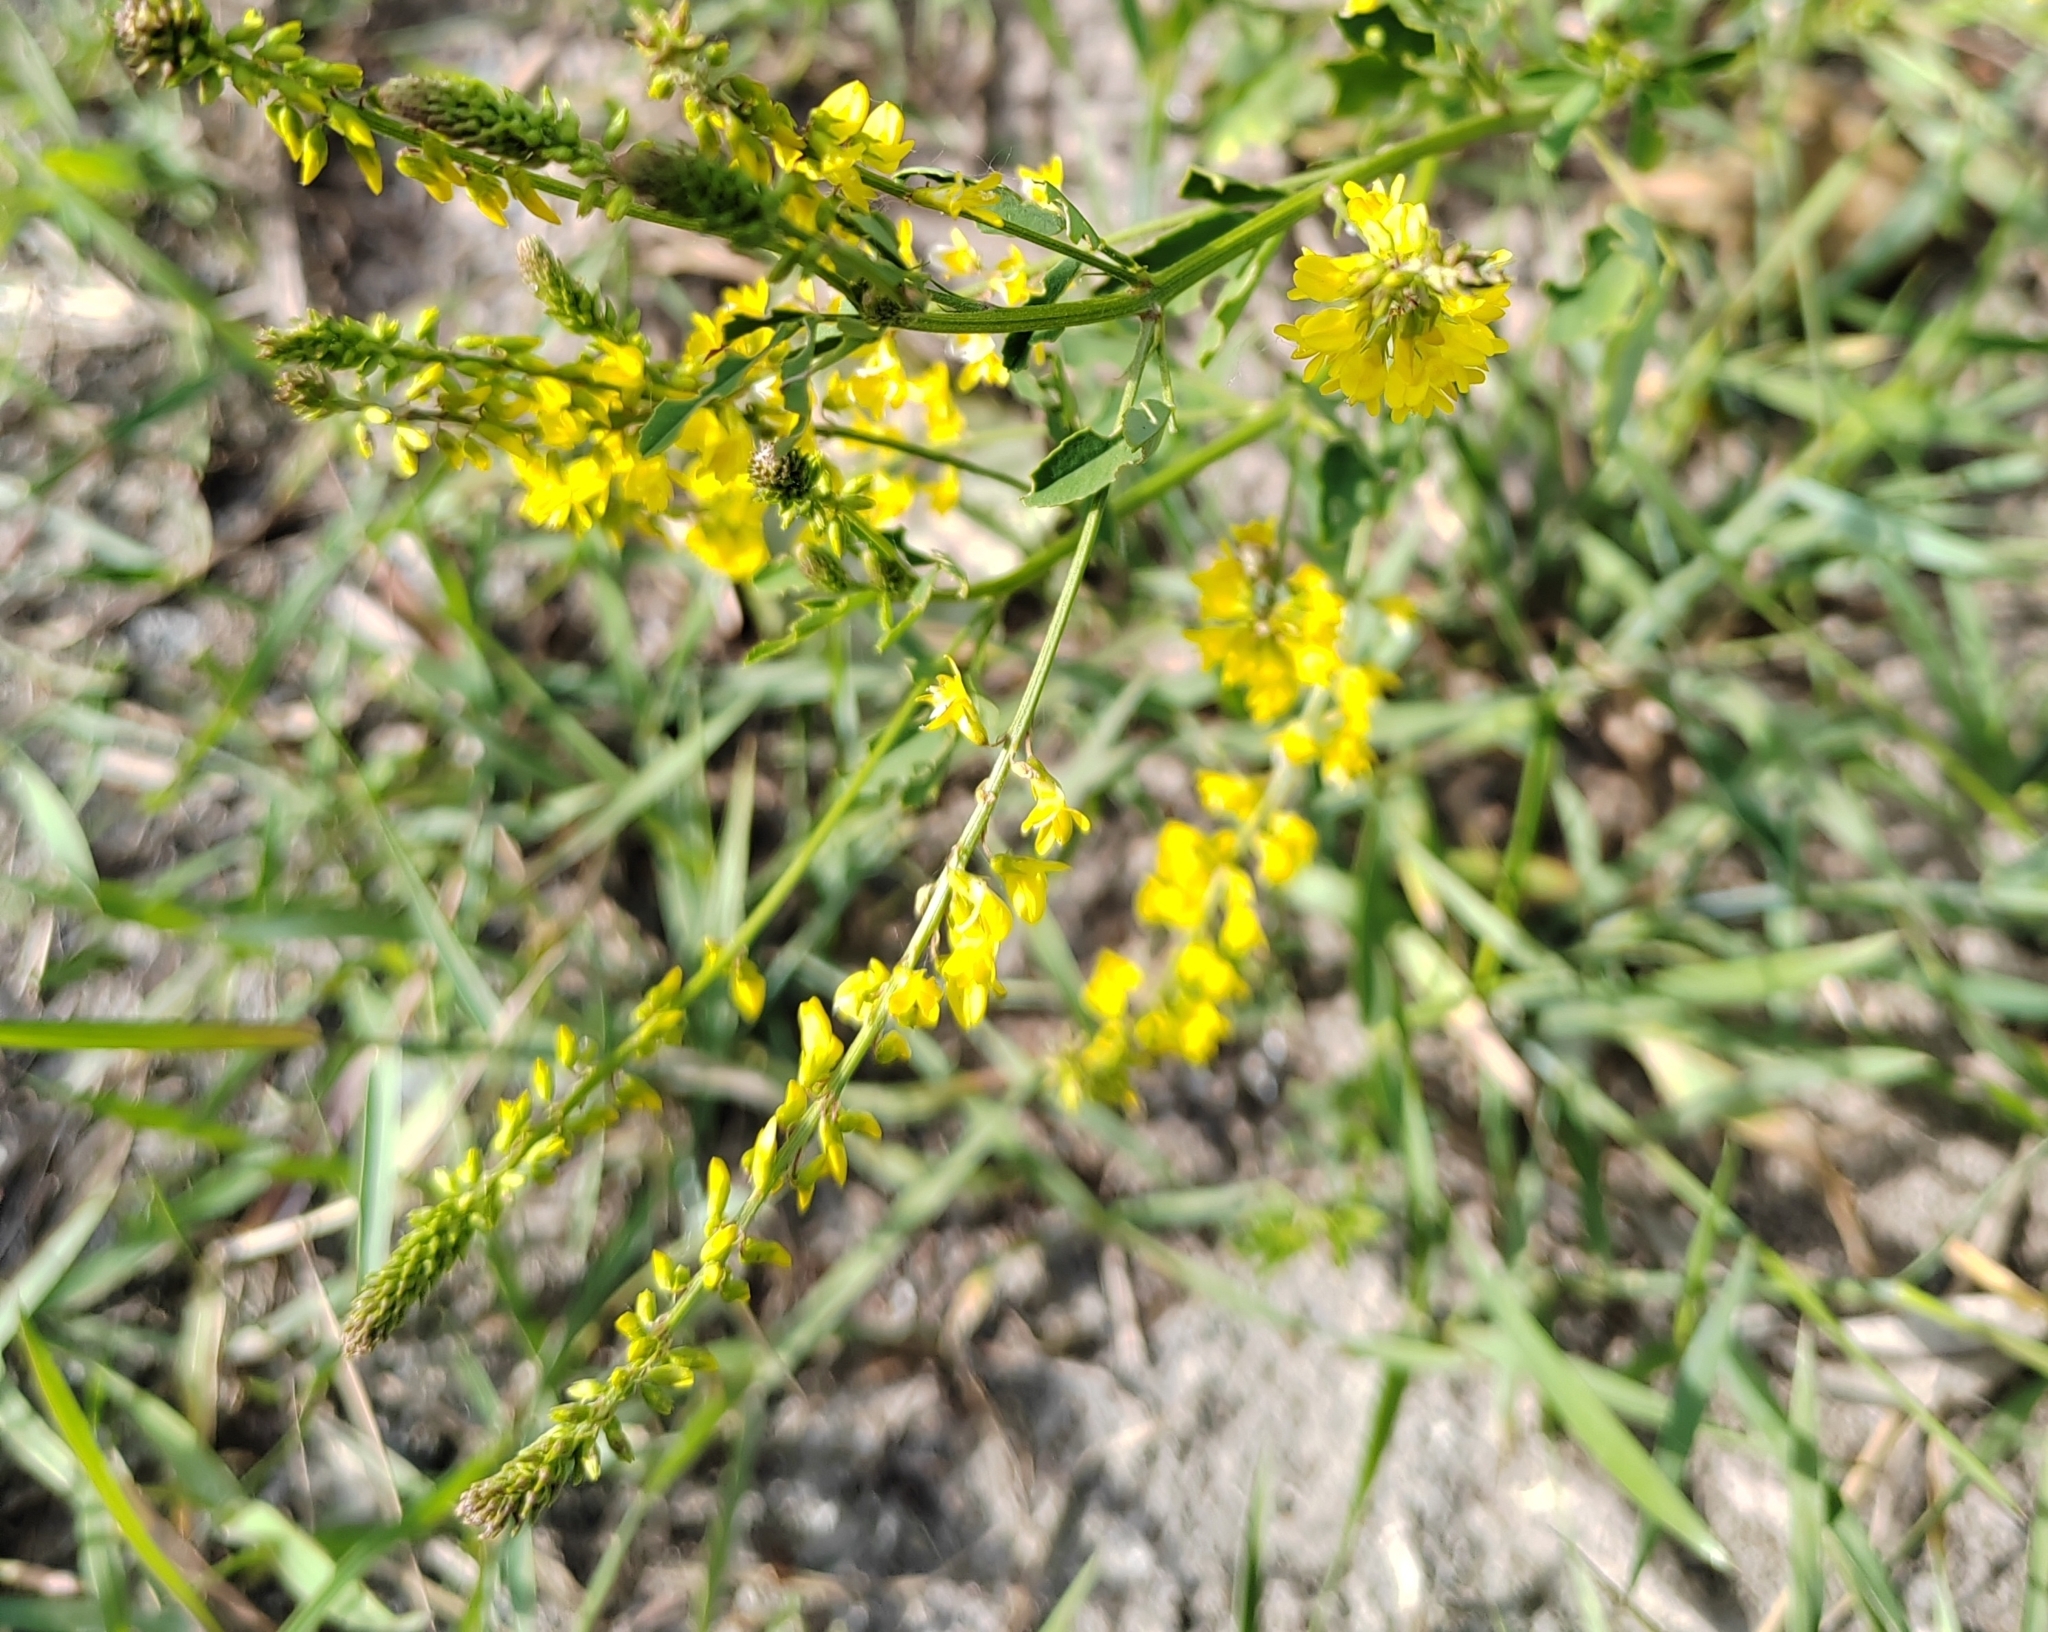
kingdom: Plantae
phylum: Tracheophyta
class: Magnoliopsida
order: Fabales
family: Fabaceae
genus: Melilotus
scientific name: Melilotus officinalis
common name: Sweetclover
